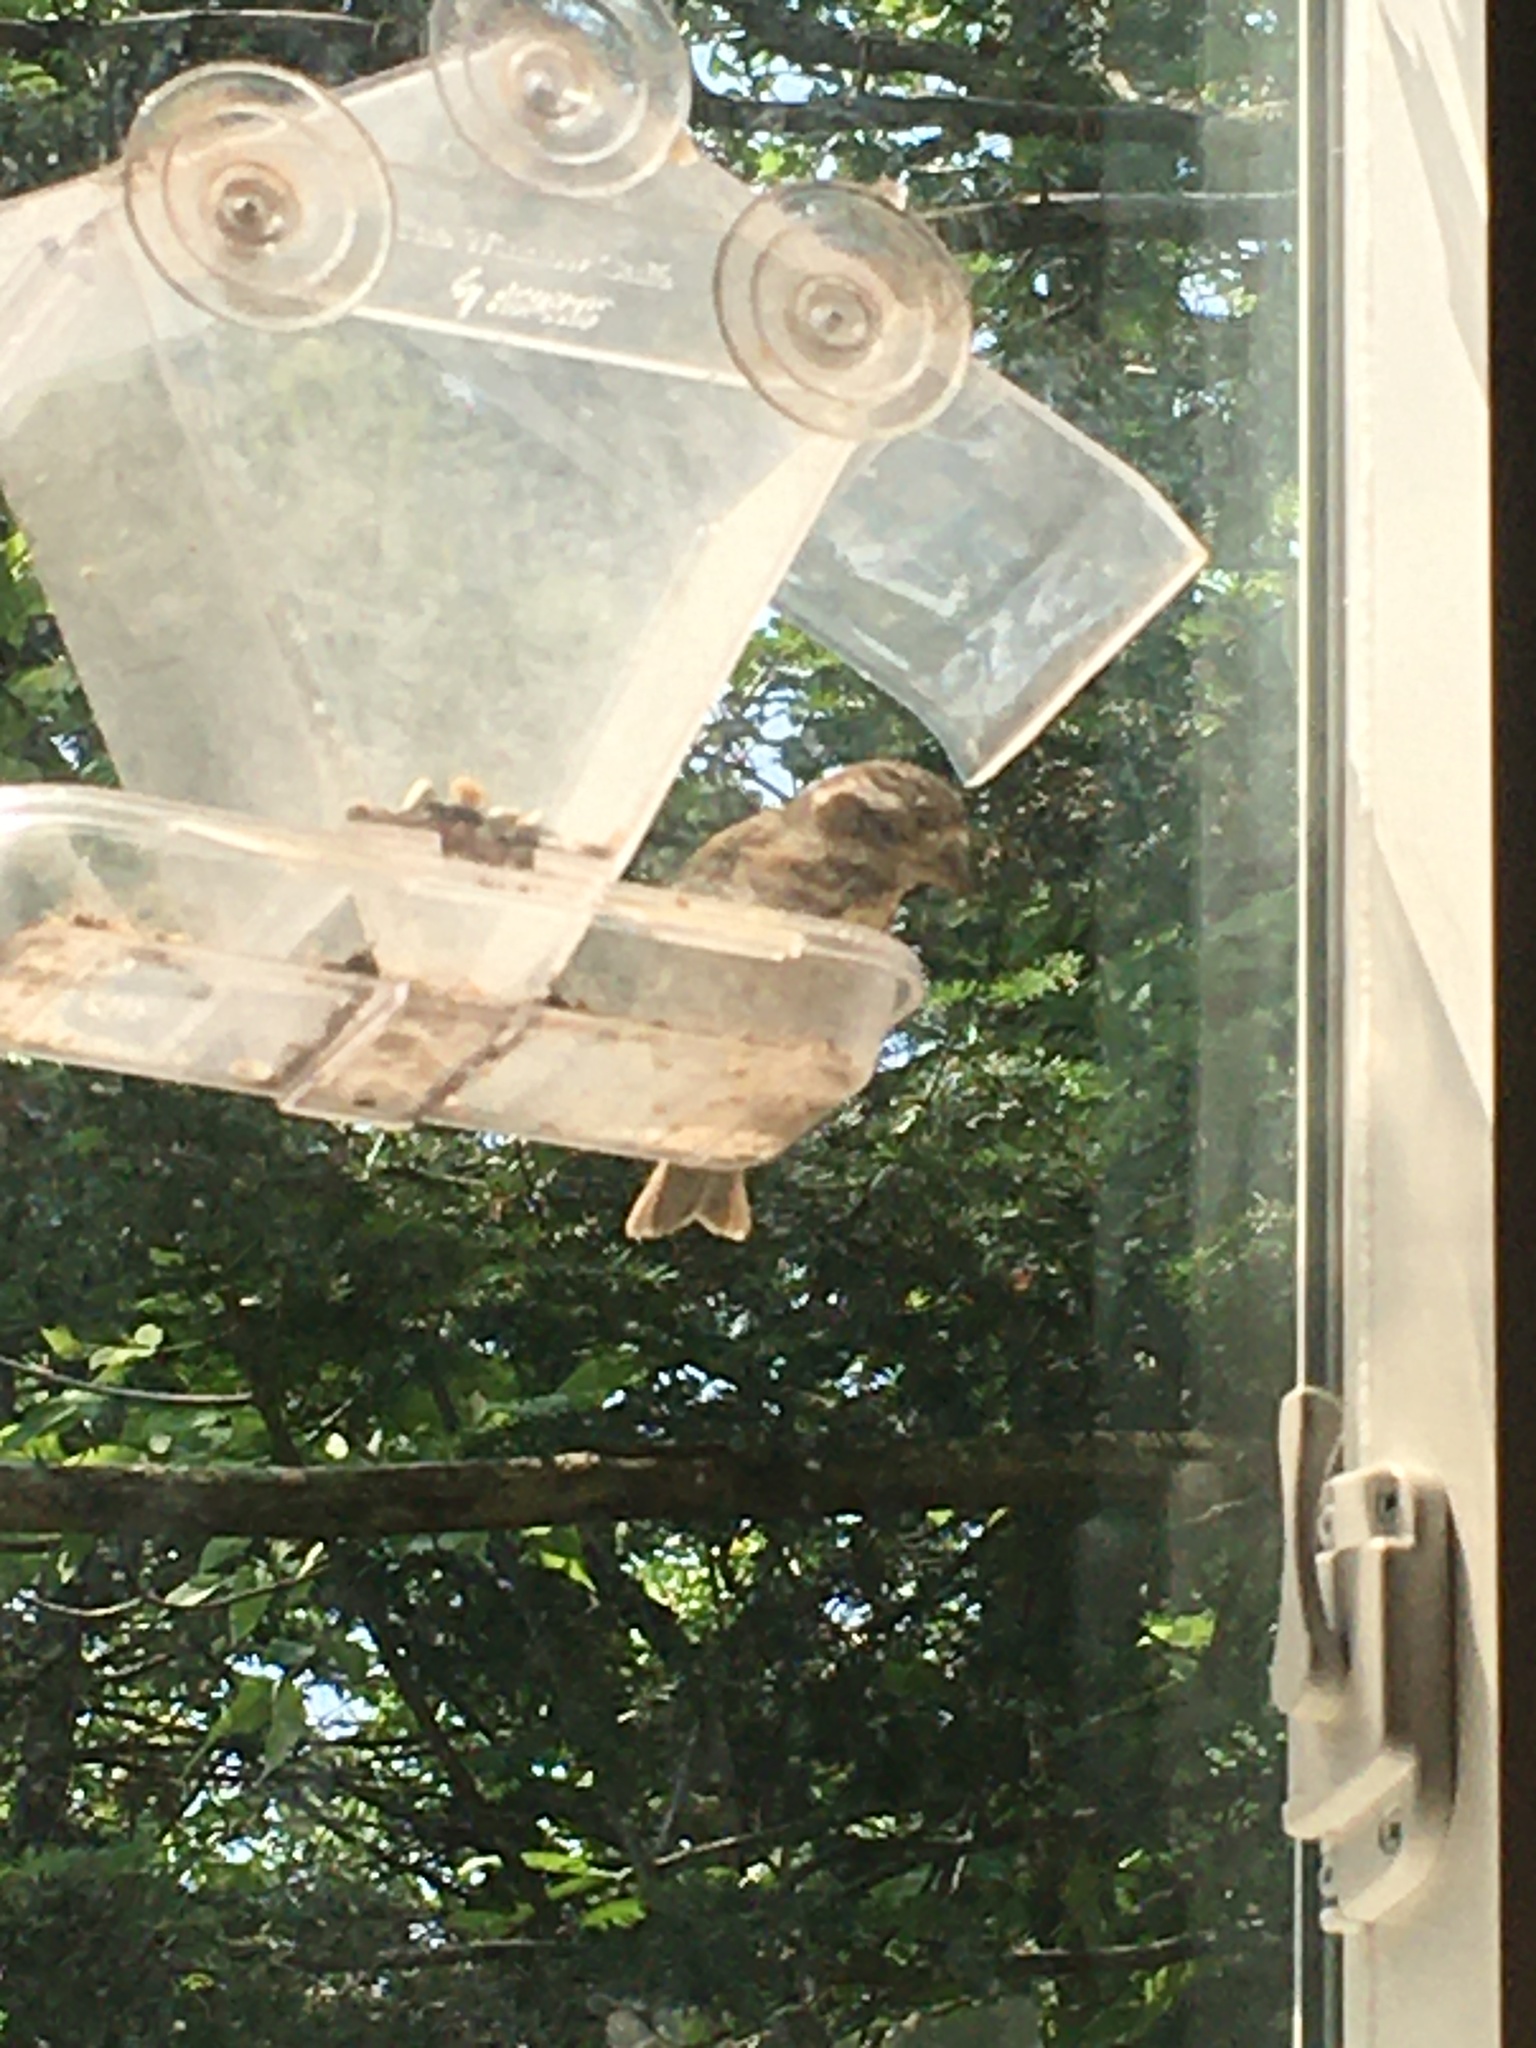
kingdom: Animalia
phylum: Chordata
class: Aves
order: Passeriformes
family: Fringillidae
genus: Haemorhous
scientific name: Haemorhous purpureus
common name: Purple finch
